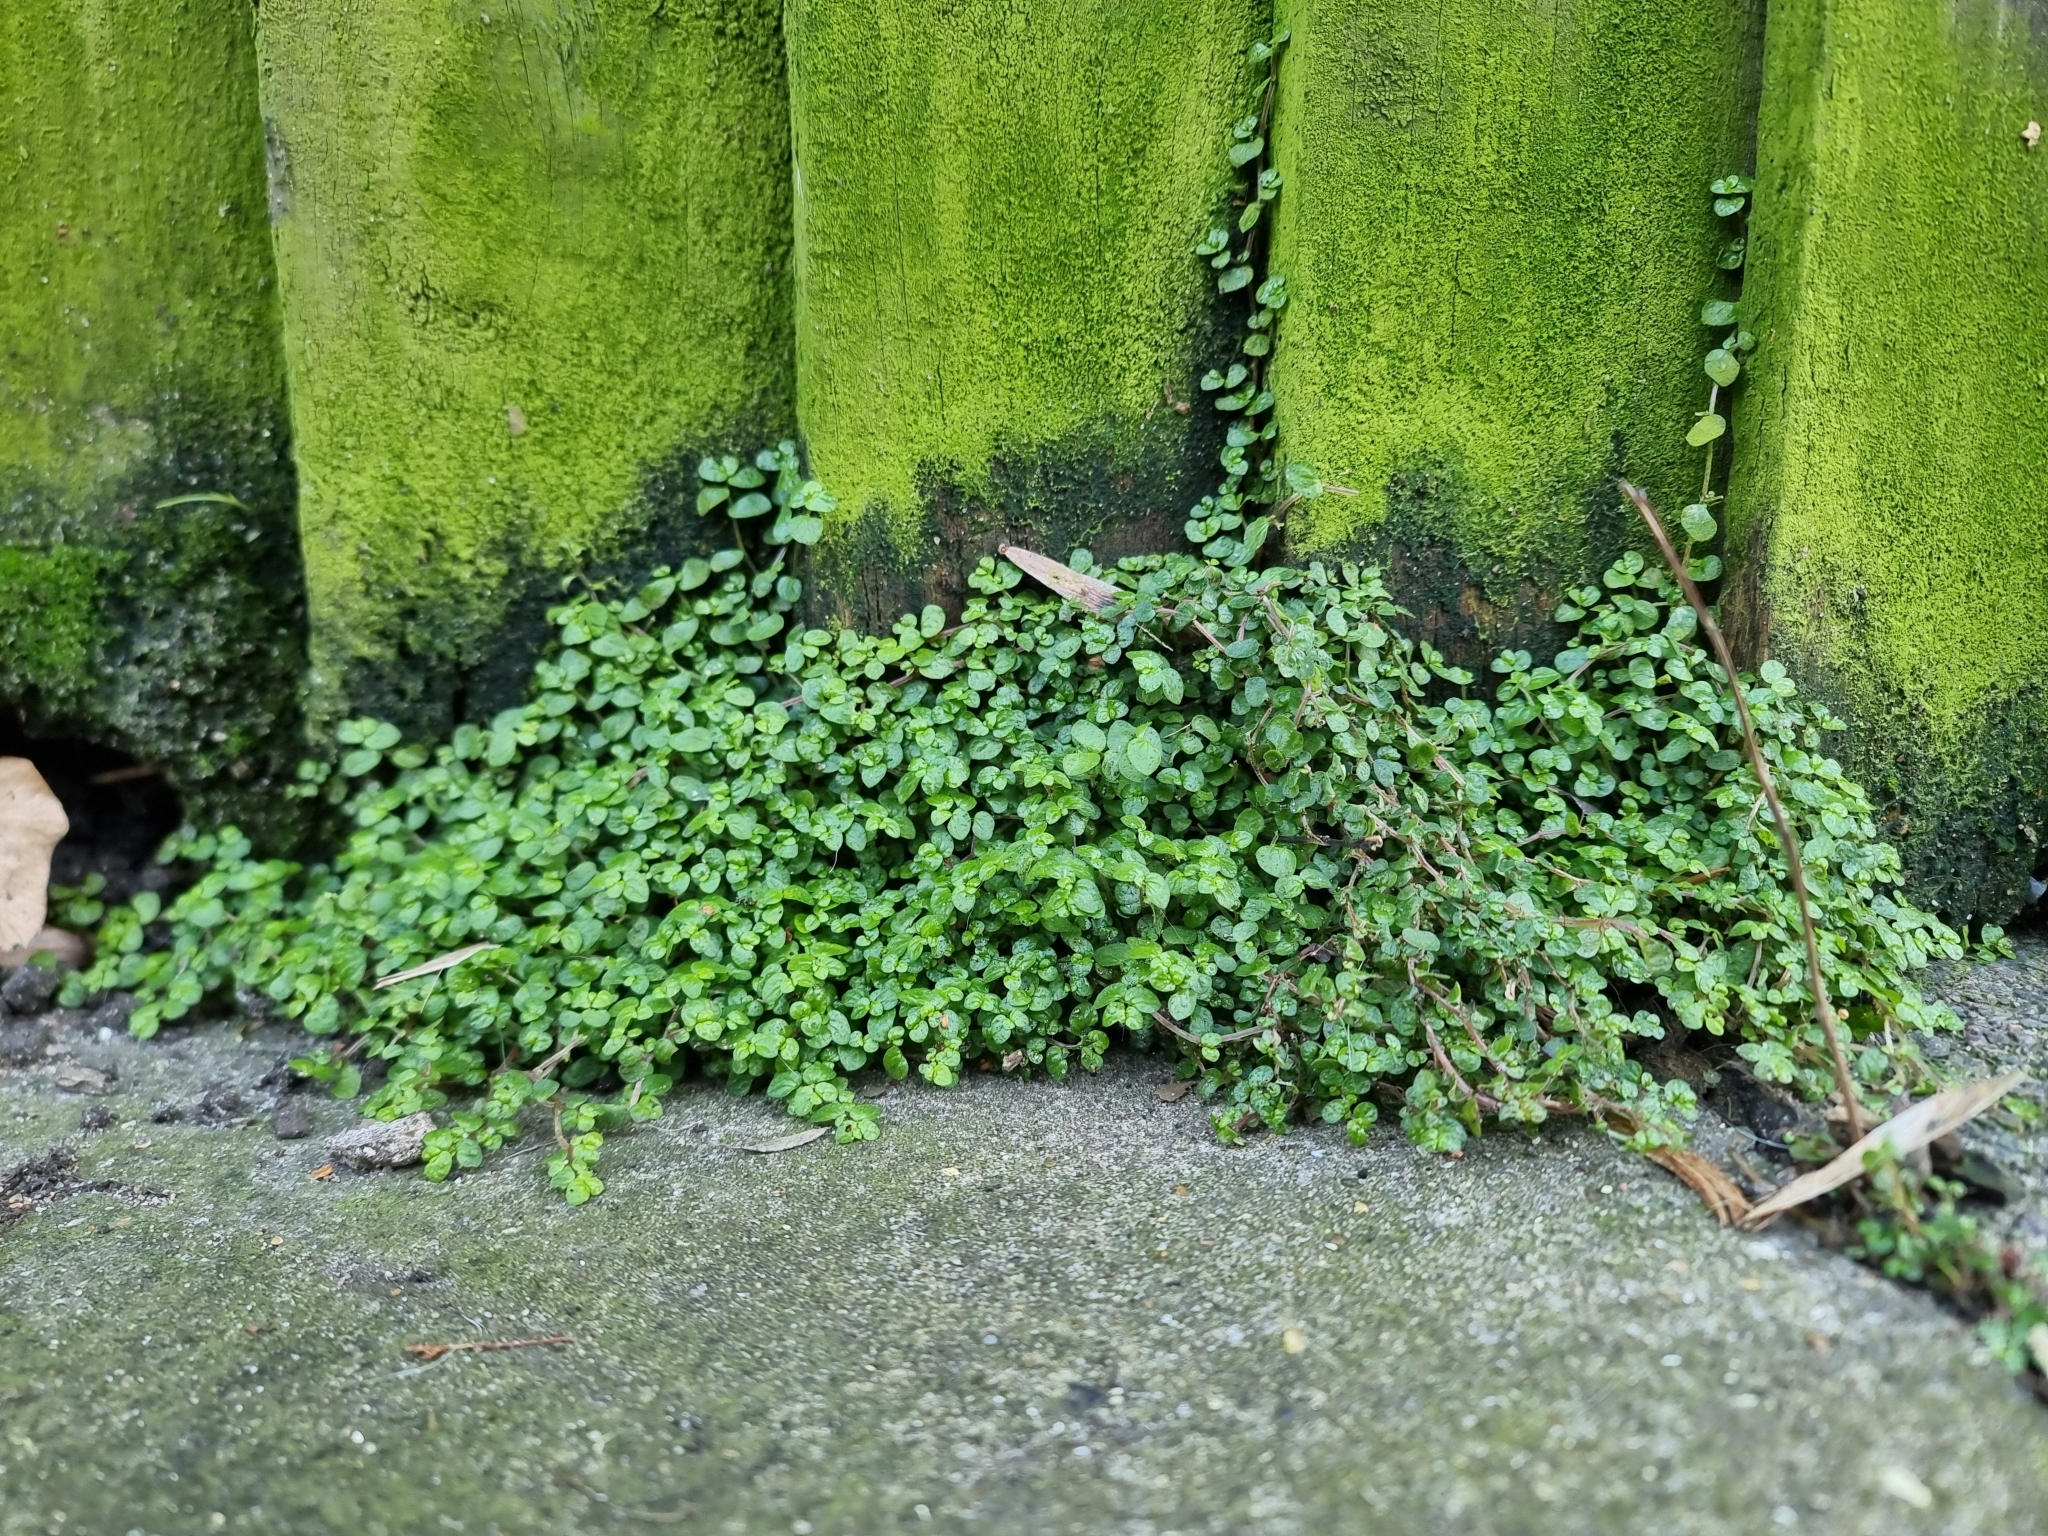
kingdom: Plantae
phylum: Tracheophyta
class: Magnoliopsida
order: Rosales
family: Urticaceae
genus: Soleirolia
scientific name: Soleirolia soleirolii
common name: Mind-your-own-business
